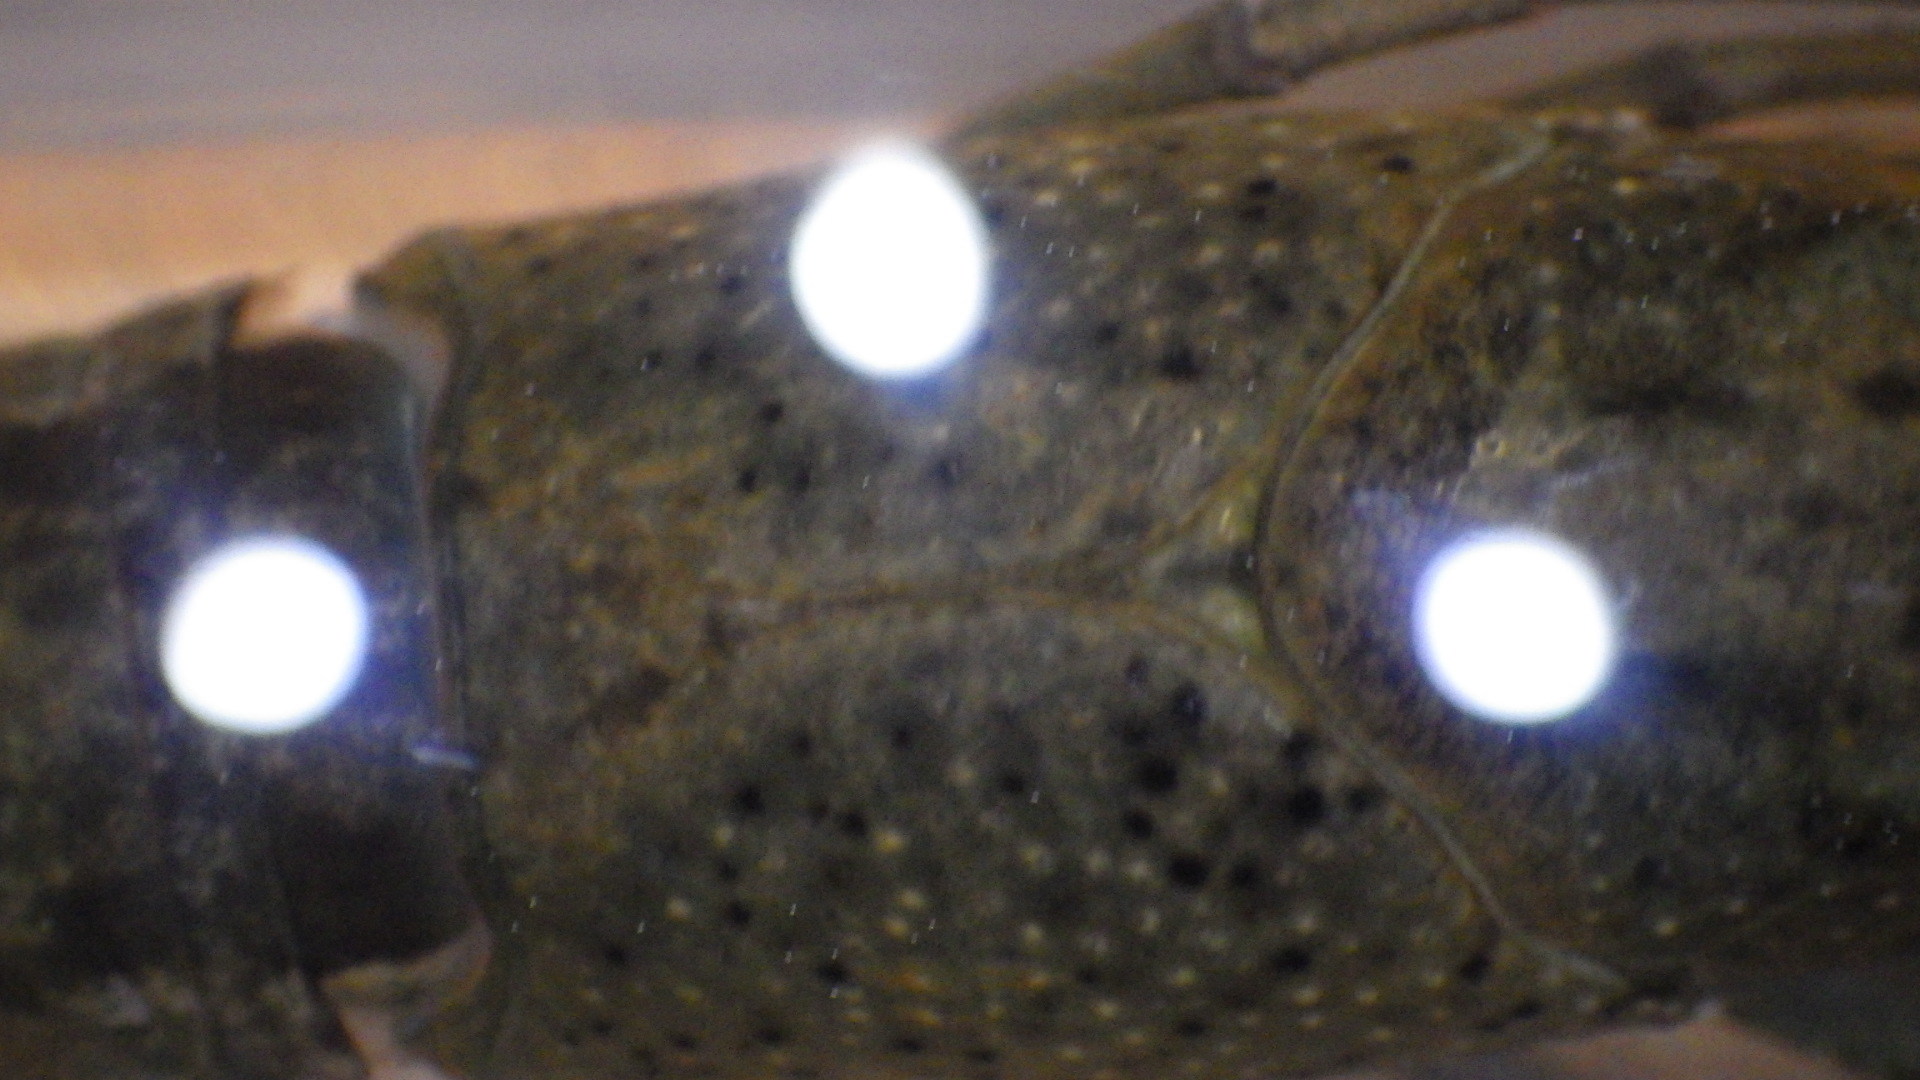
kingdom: Animalia
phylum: Arthropoda
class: Malacostraca
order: Decapoda
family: Cambaridae
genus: Procambarus
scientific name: Procambarus clarkii
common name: Red swamp crayfish
